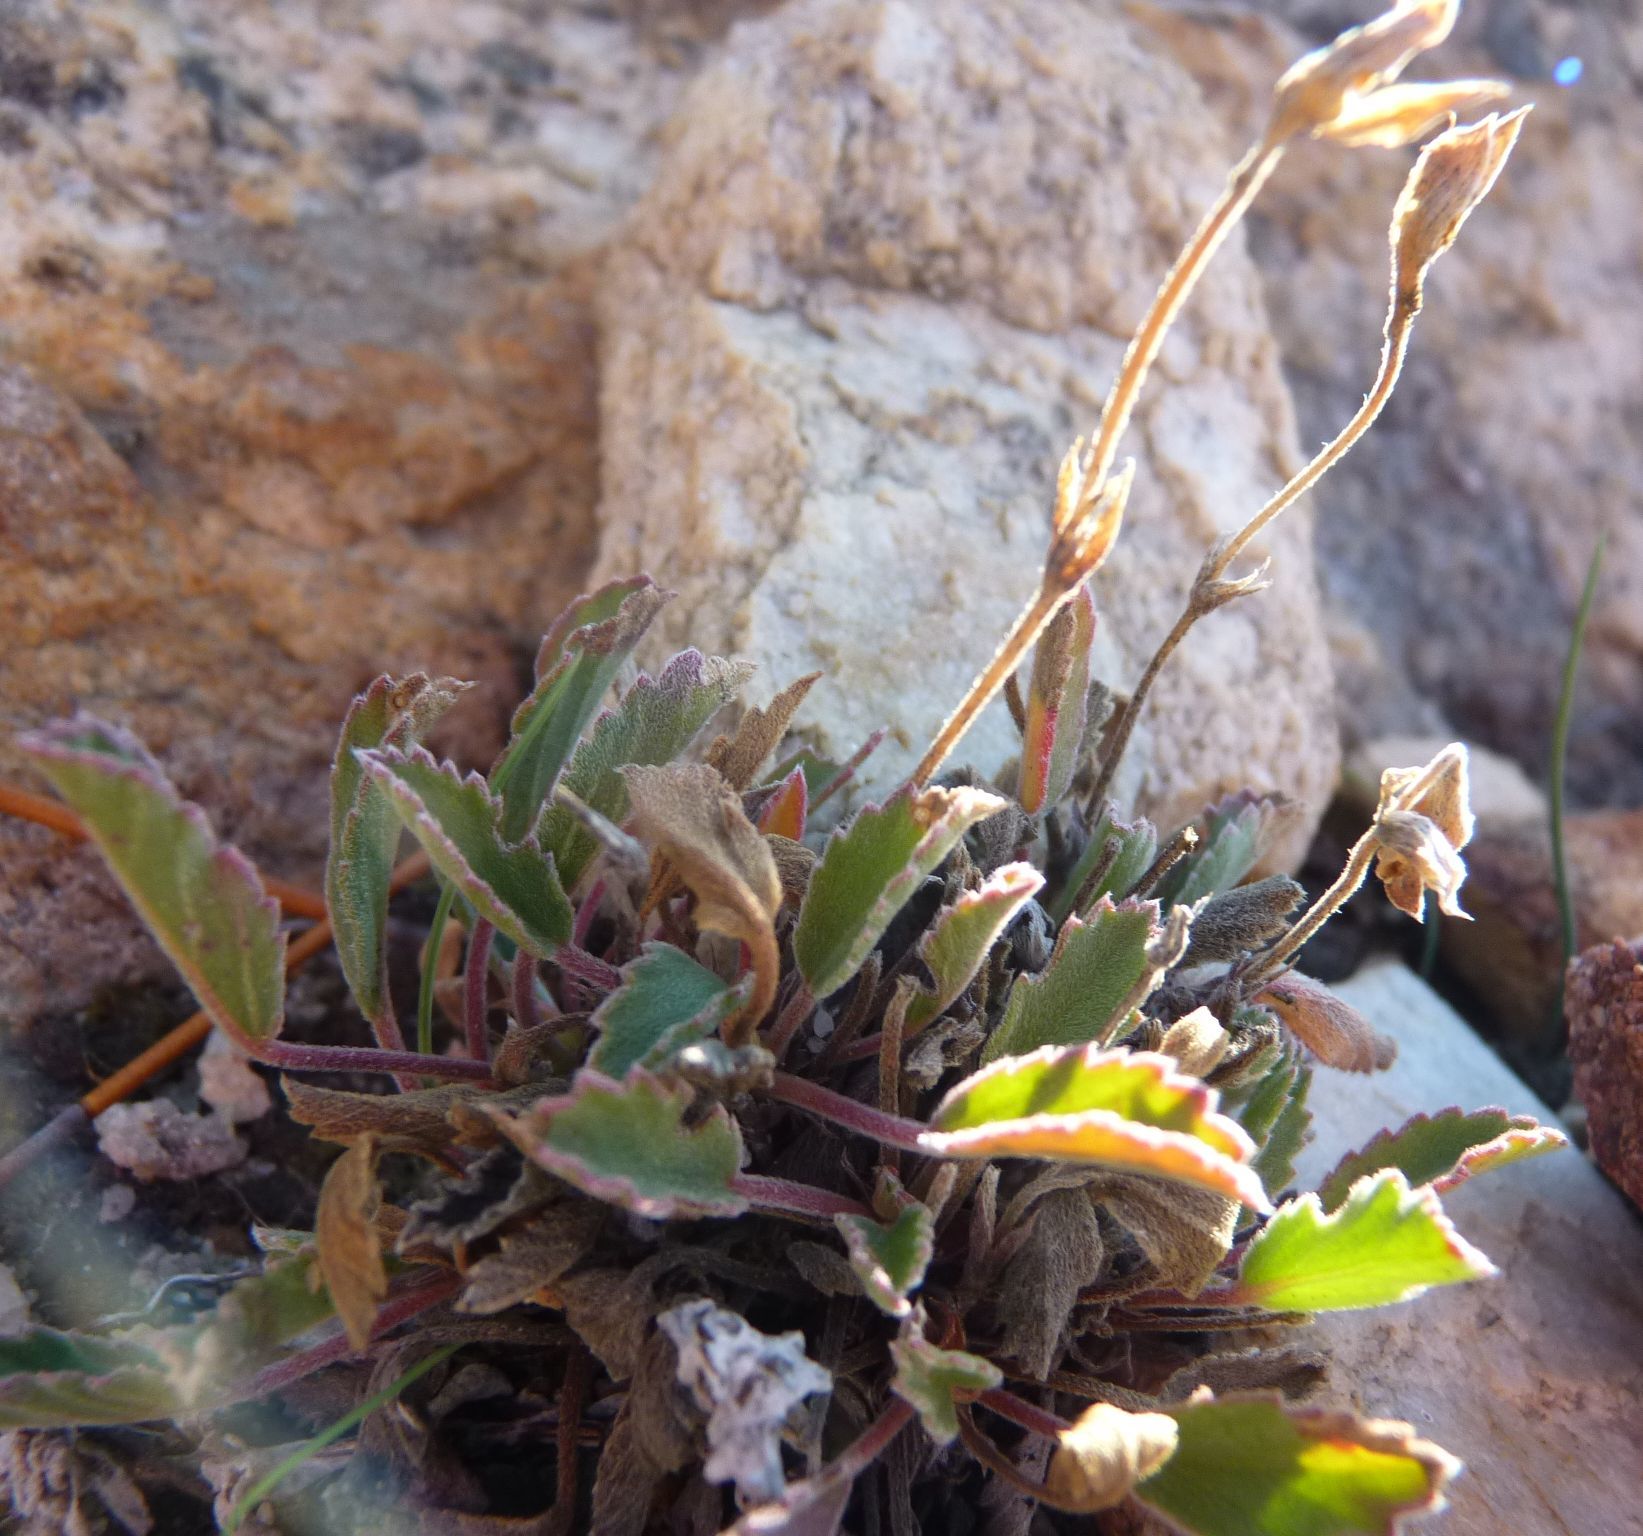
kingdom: Plantae
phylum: Tracheophyta
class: Magnoliopsida
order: Geraniales
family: Geraniaceae
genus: Pelargonium
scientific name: Pelargonium ovale
